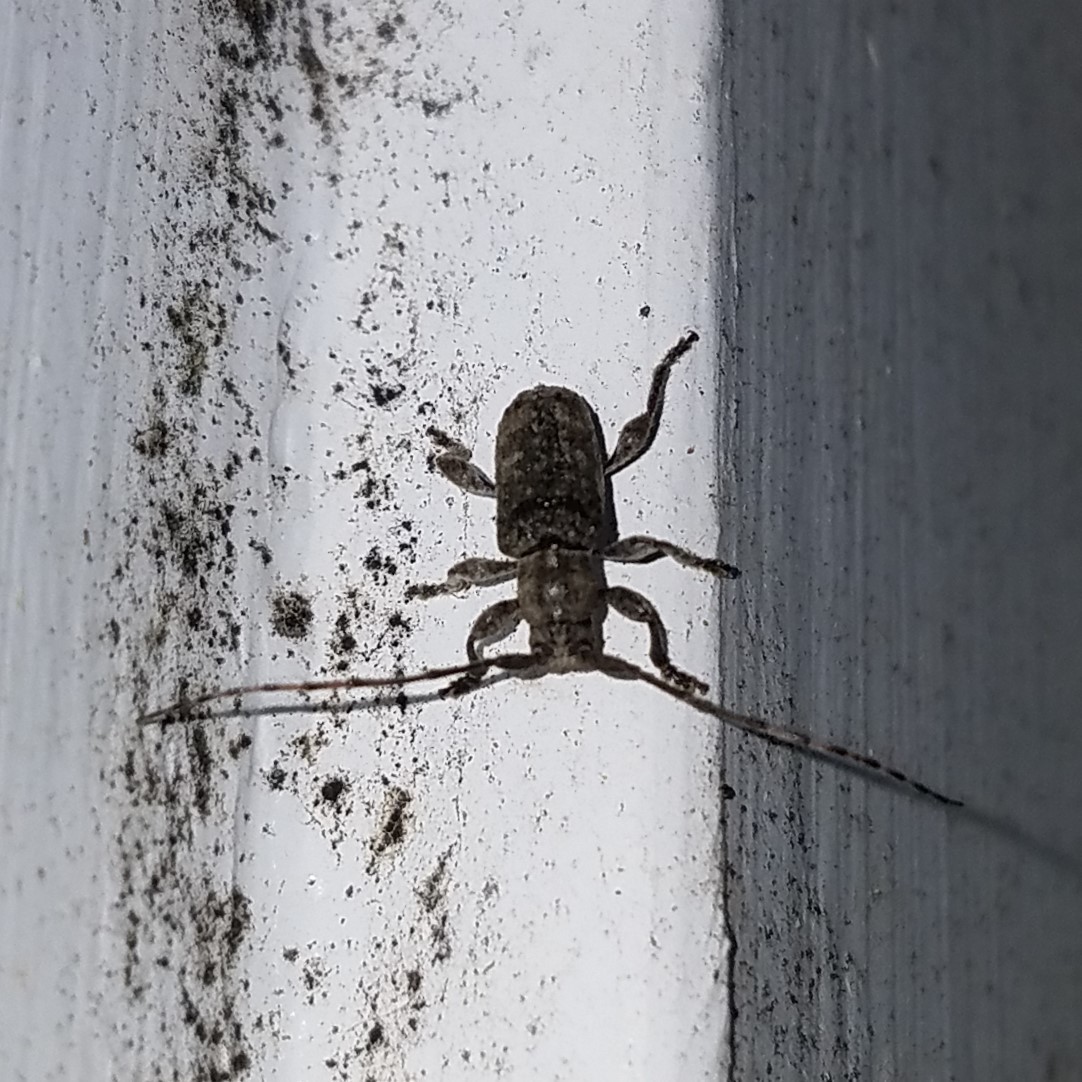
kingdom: Animalia
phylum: Arthropoda
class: Insecta
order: Coleoptera
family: Cerambycidae
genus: Ecyrus
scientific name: Ecyrus dasycerus
